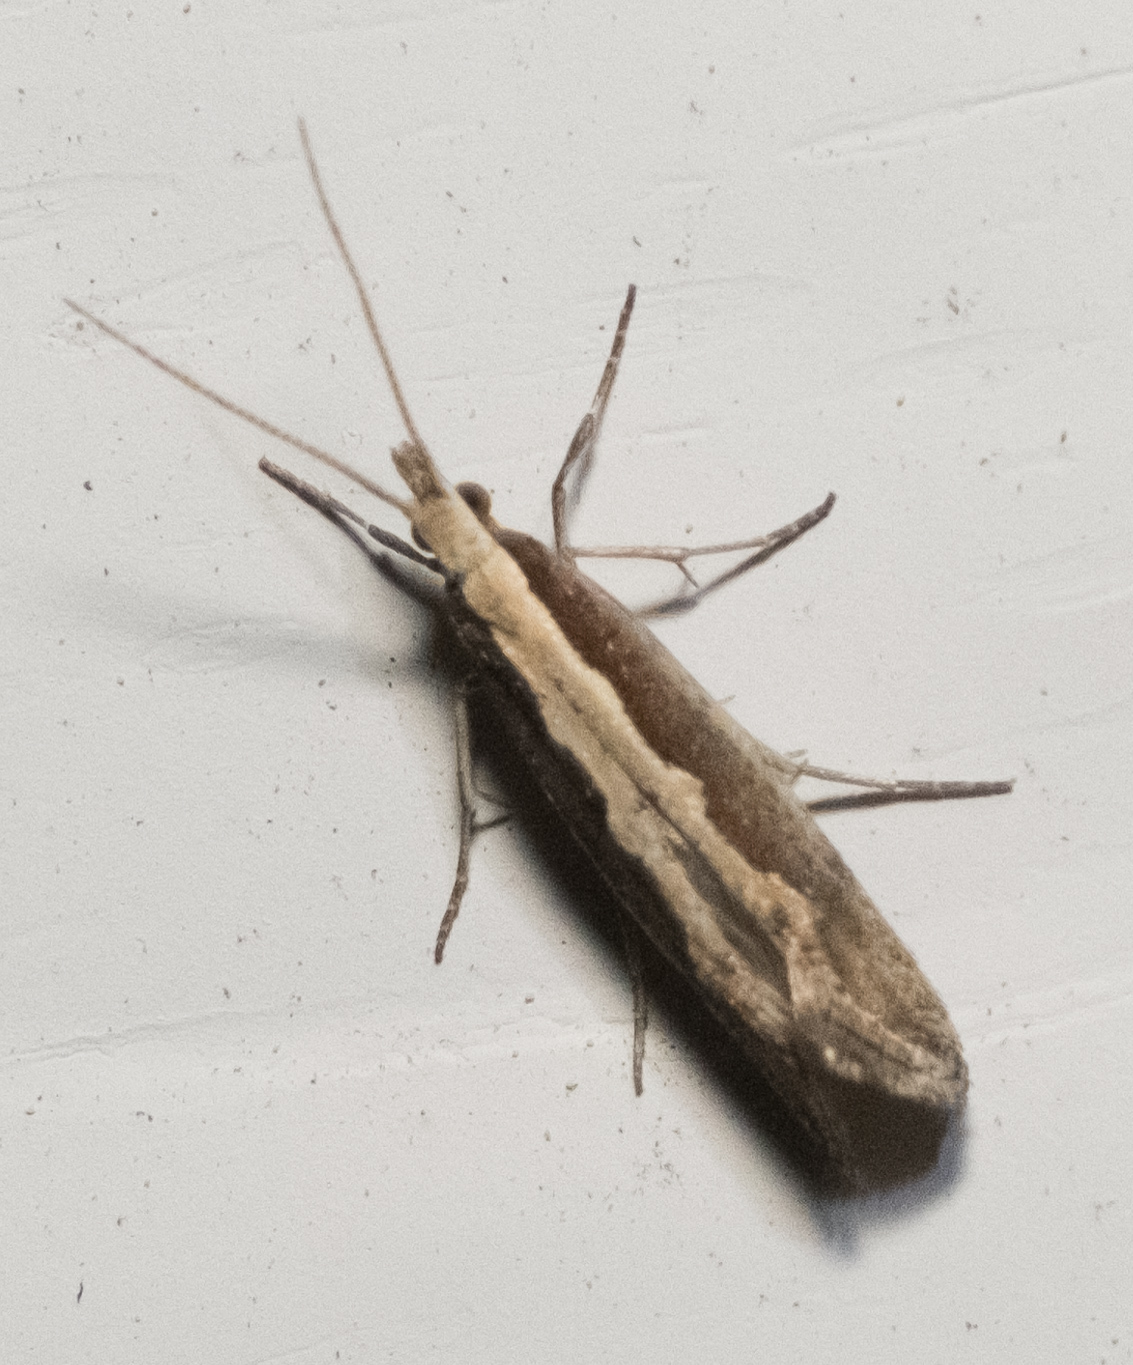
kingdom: Animalia
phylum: Arthropoda
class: Insecta
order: Lepidoptera
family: Plutellidae
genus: Plutella
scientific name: Plutella xylostella
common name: Diamond-back moth
